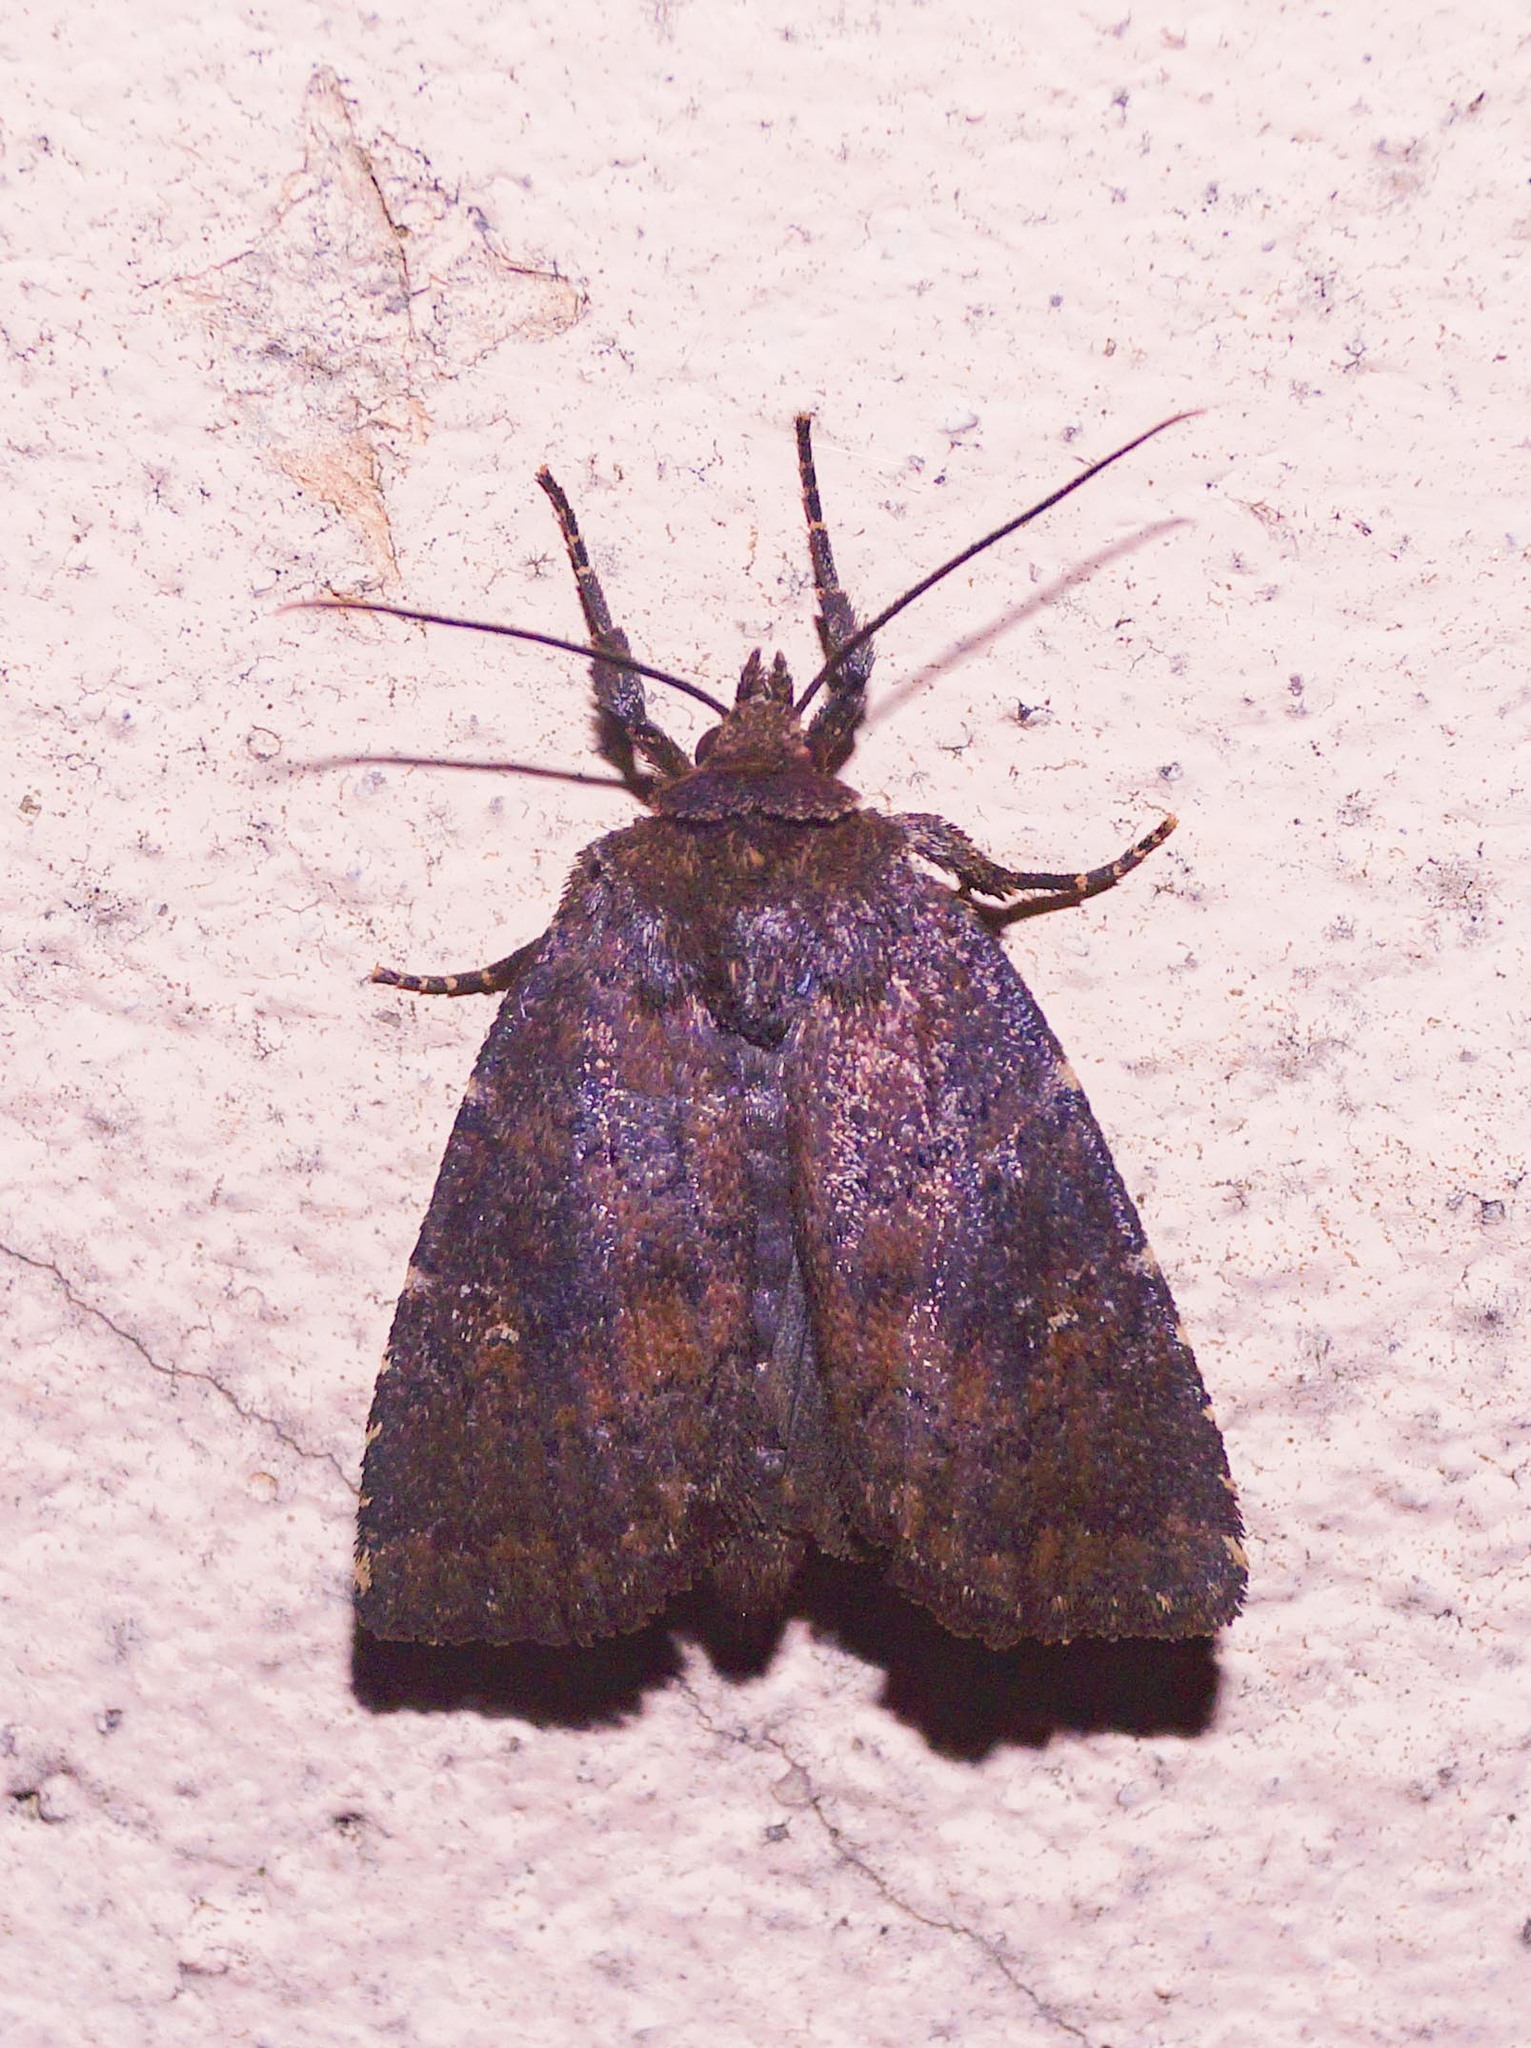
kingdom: Animalia
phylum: Arthropoda
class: Insecta
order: Lepidoptera
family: Noctuidae
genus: Charanyca
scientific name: Charanyca ferruginea
